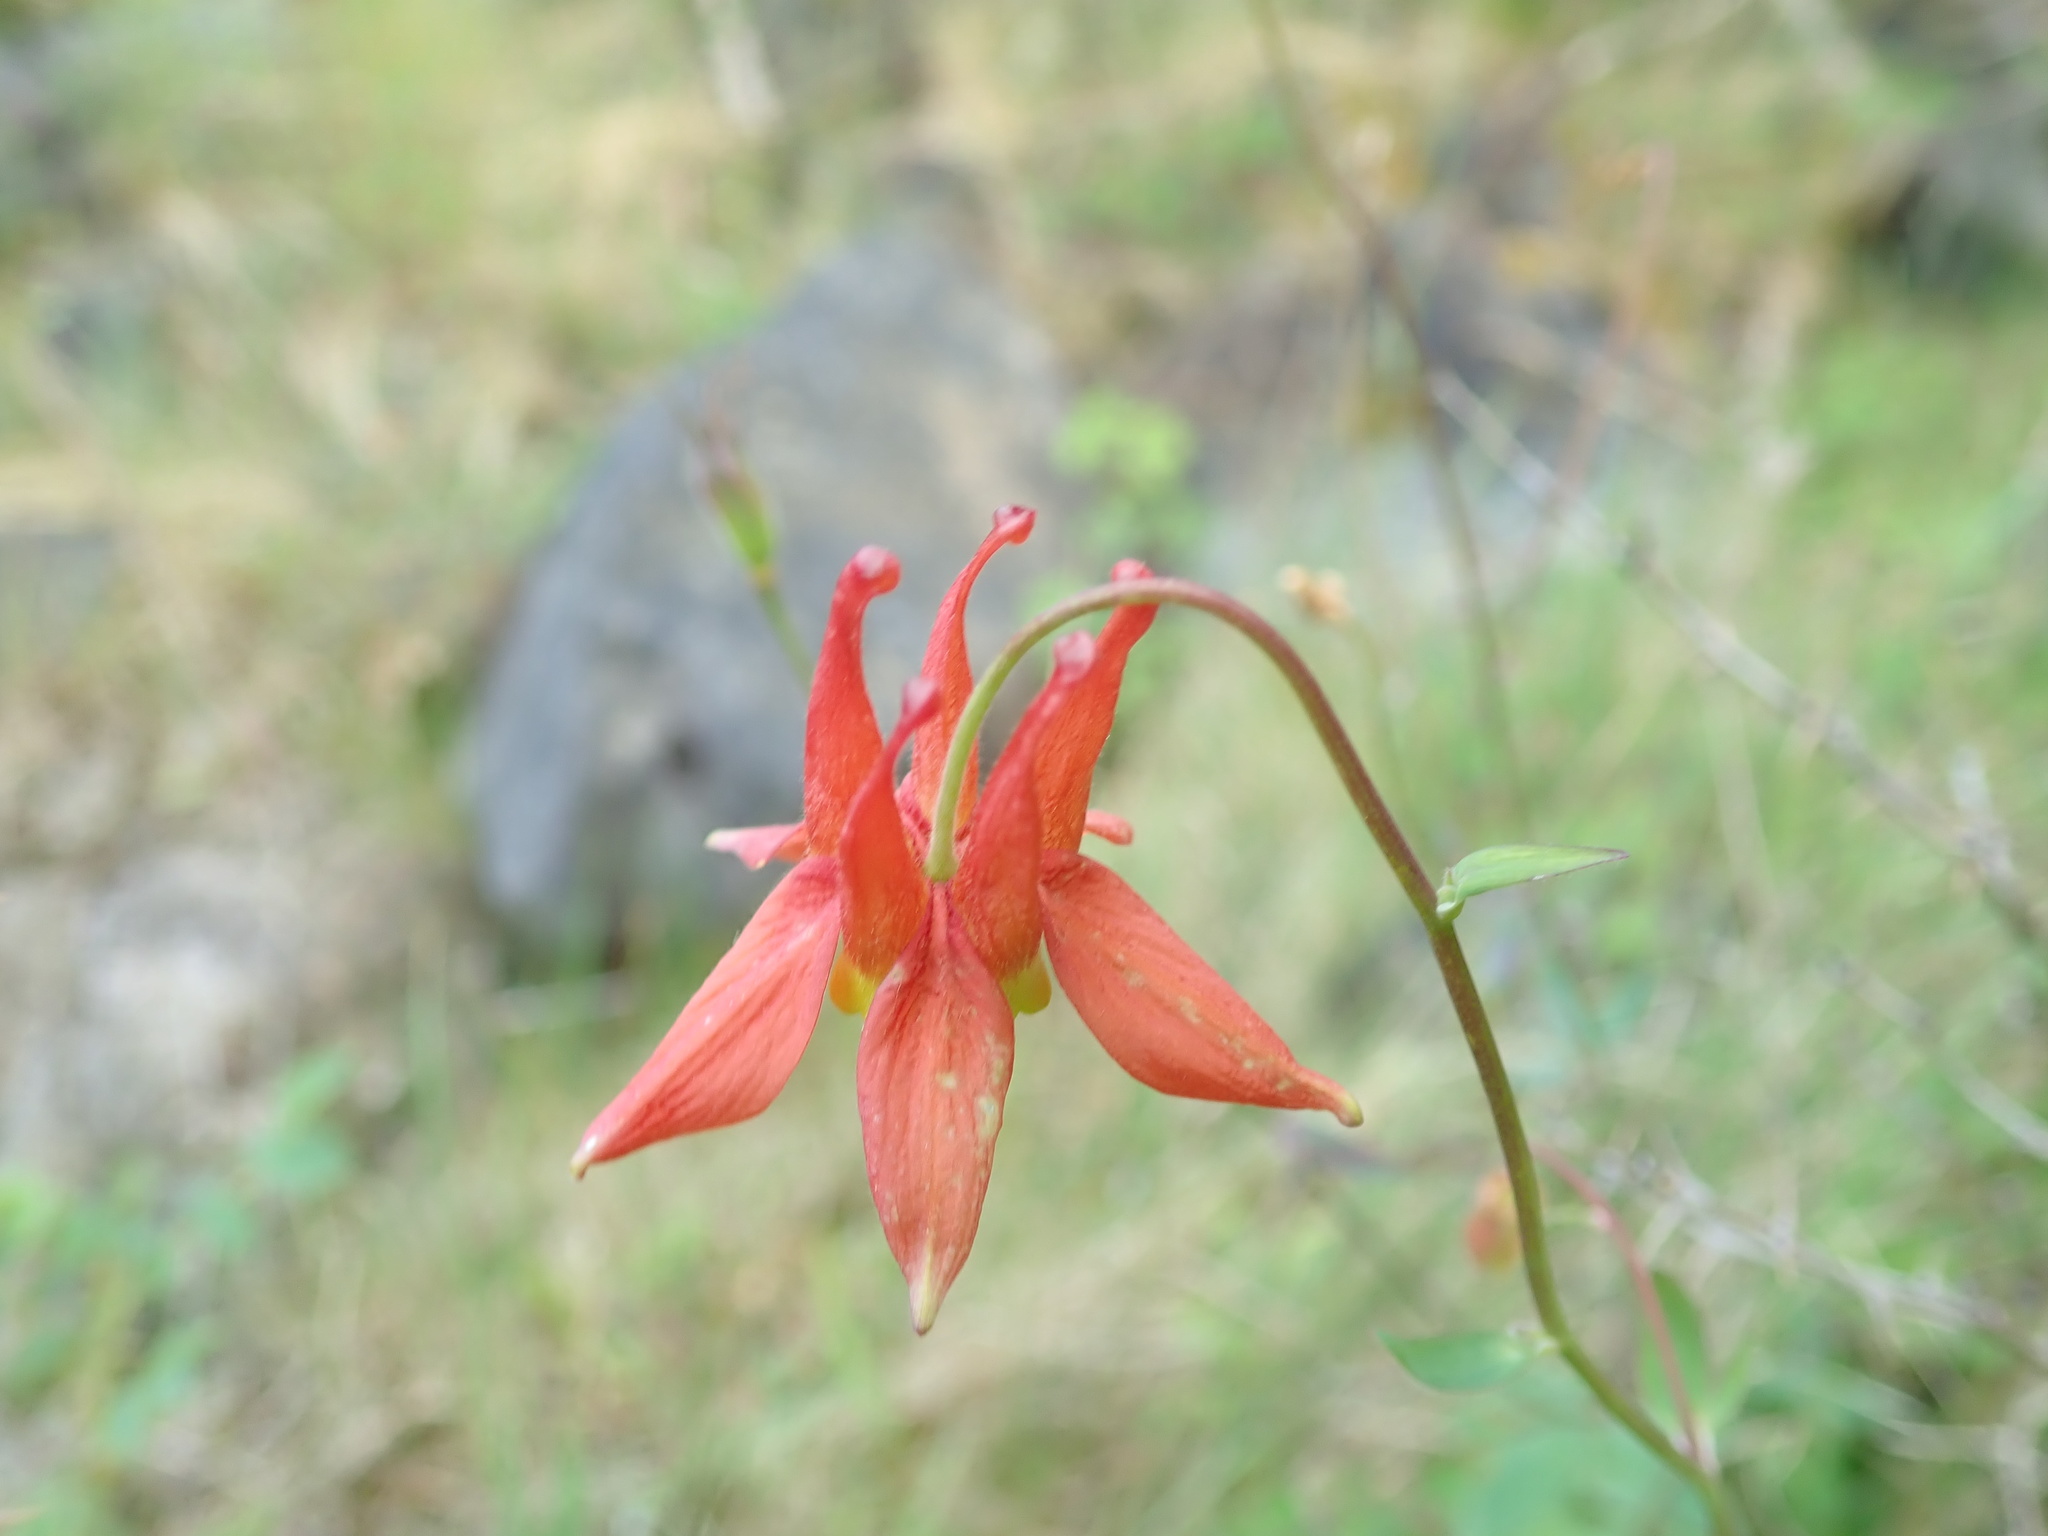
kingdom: Plantae
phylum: Tracheophyta
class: Magnoliopsida
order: Ranunculales
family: Ranunculaceae
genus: Aquilegia
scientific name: Aquilegia formosa
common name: Sitka columbine
